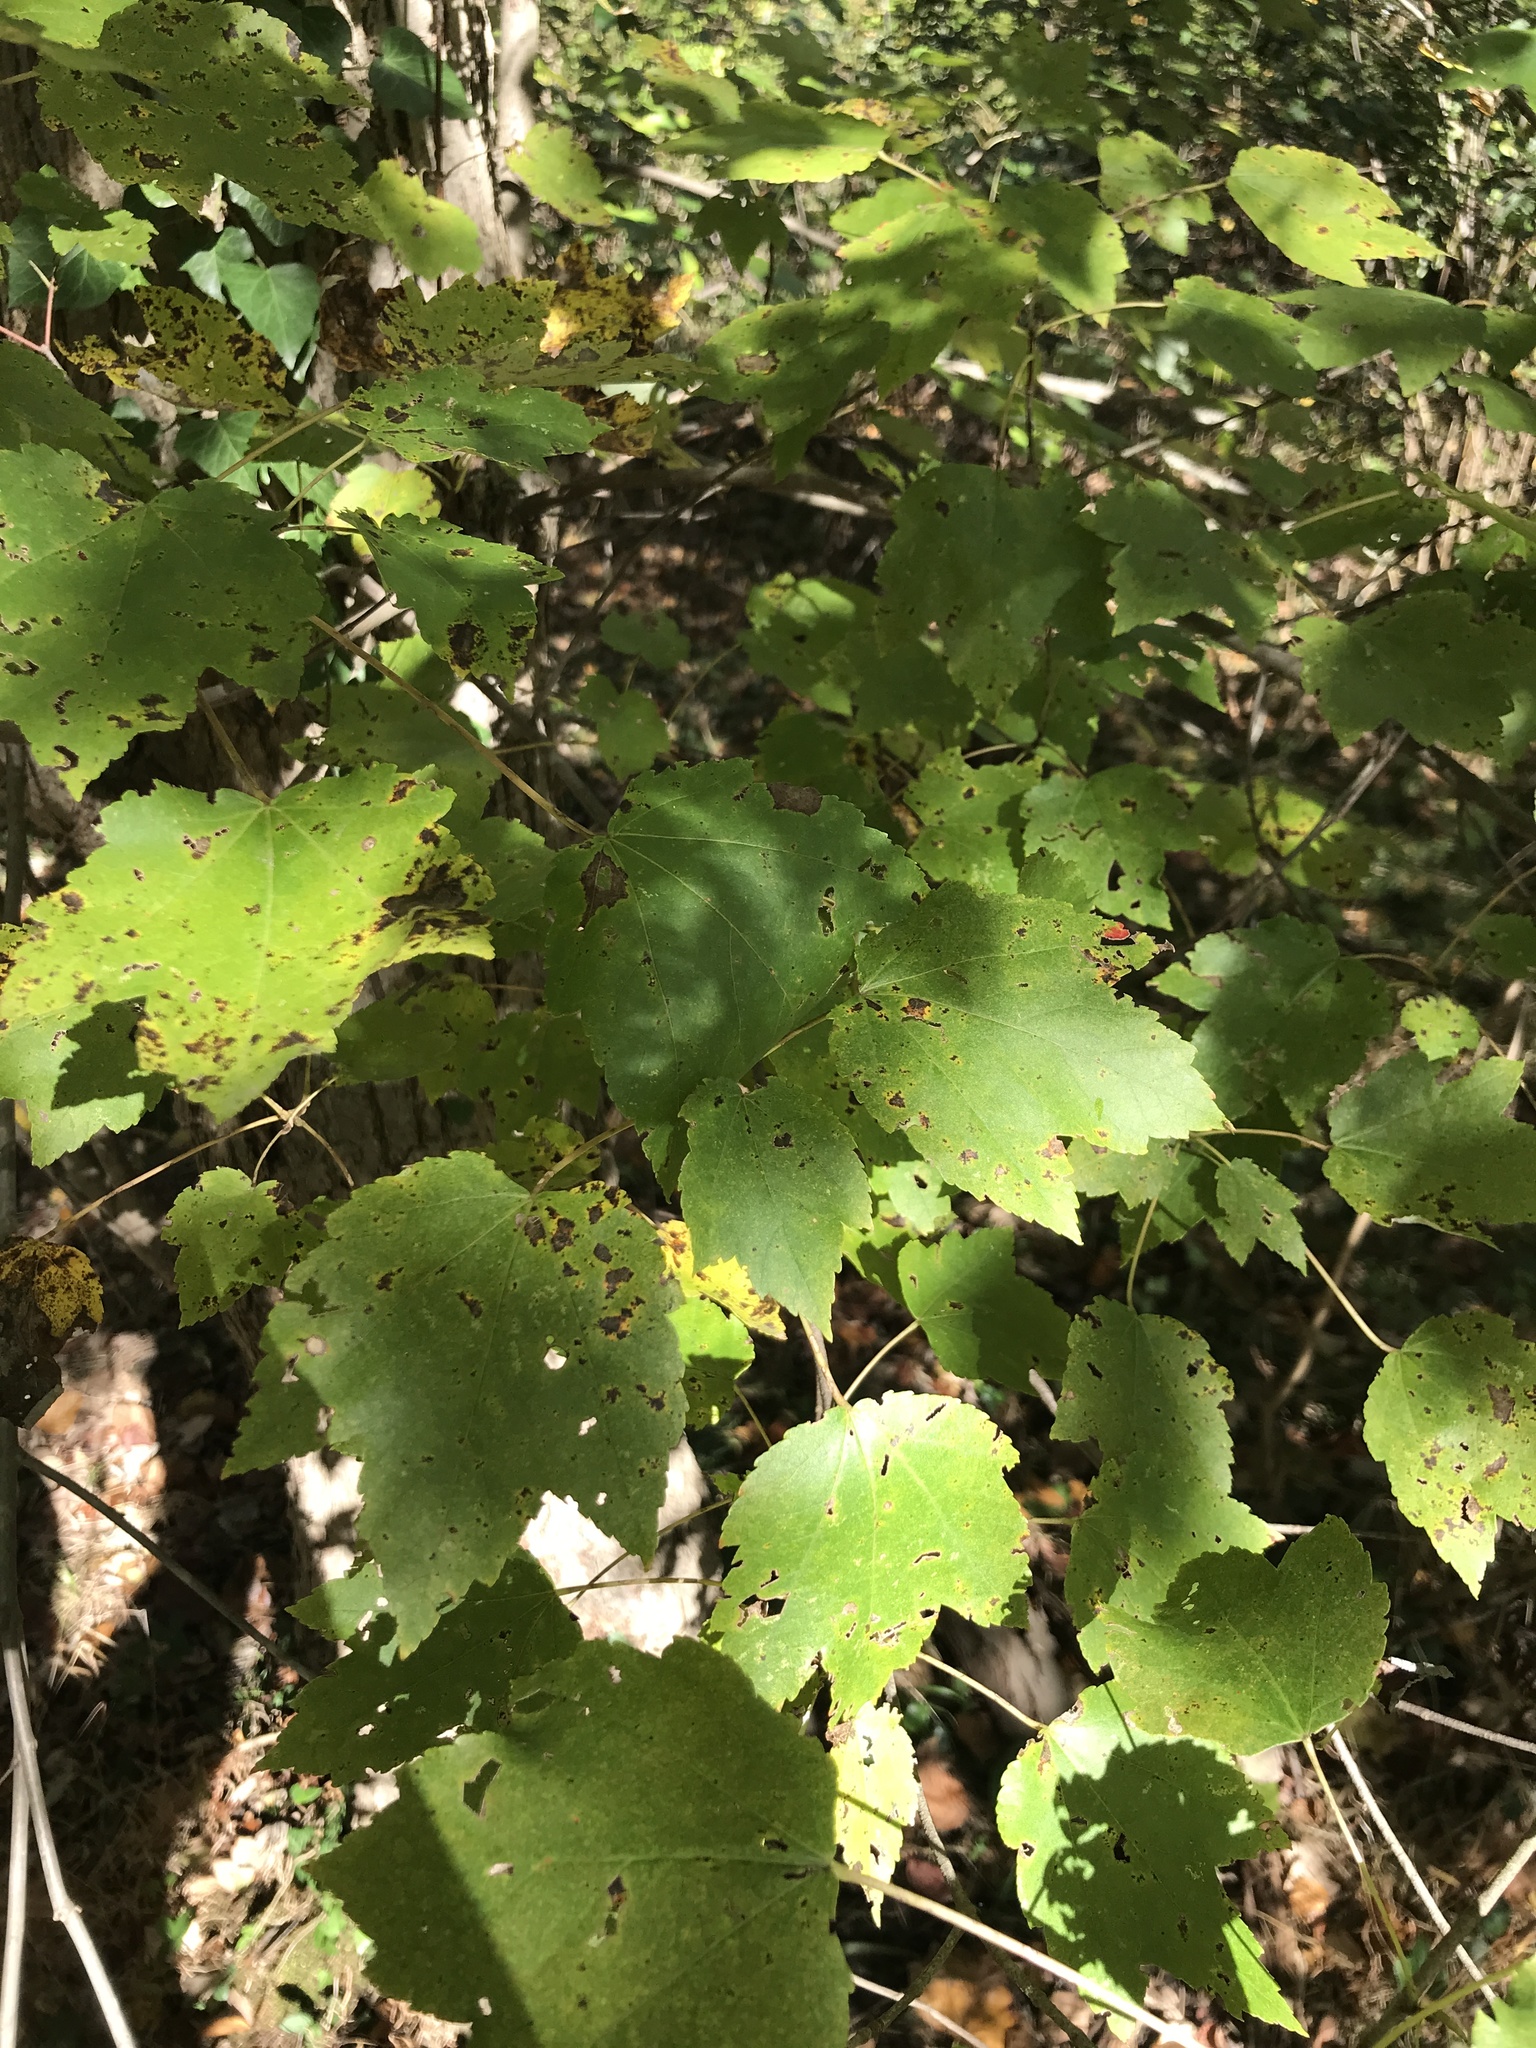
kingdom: Plantae
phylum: Tracheophyta
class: Magnoliopsida
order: Sapindales
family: Sapindaceae
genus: Acer
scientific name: Acer rubrum
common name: Red maple
